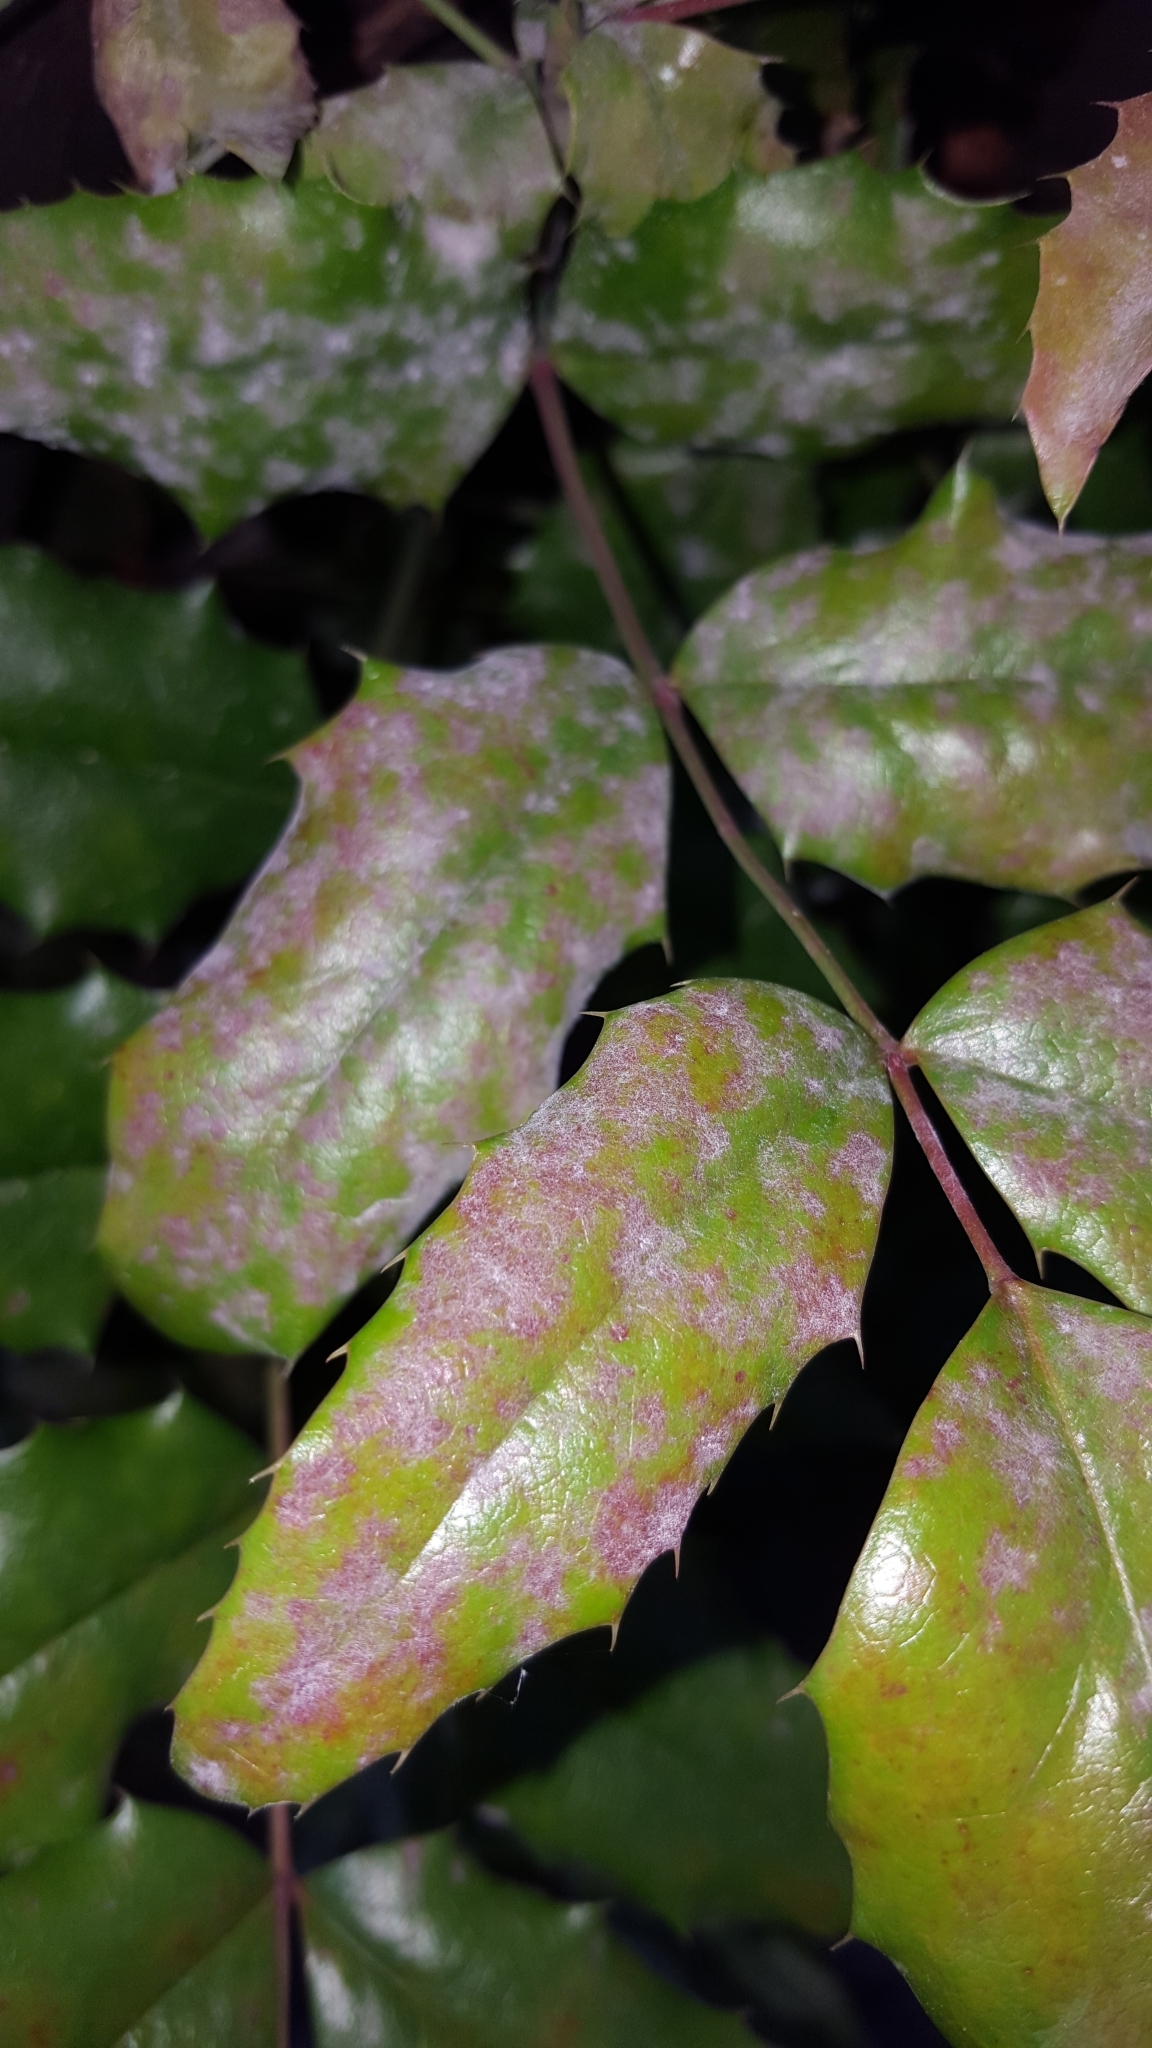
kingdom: Fungi
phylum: Ascomycota
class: Leotiomycetes
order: Helotiales
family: Erysiphaceae
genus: Erysiphe
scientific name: Erysiphe berberidis
